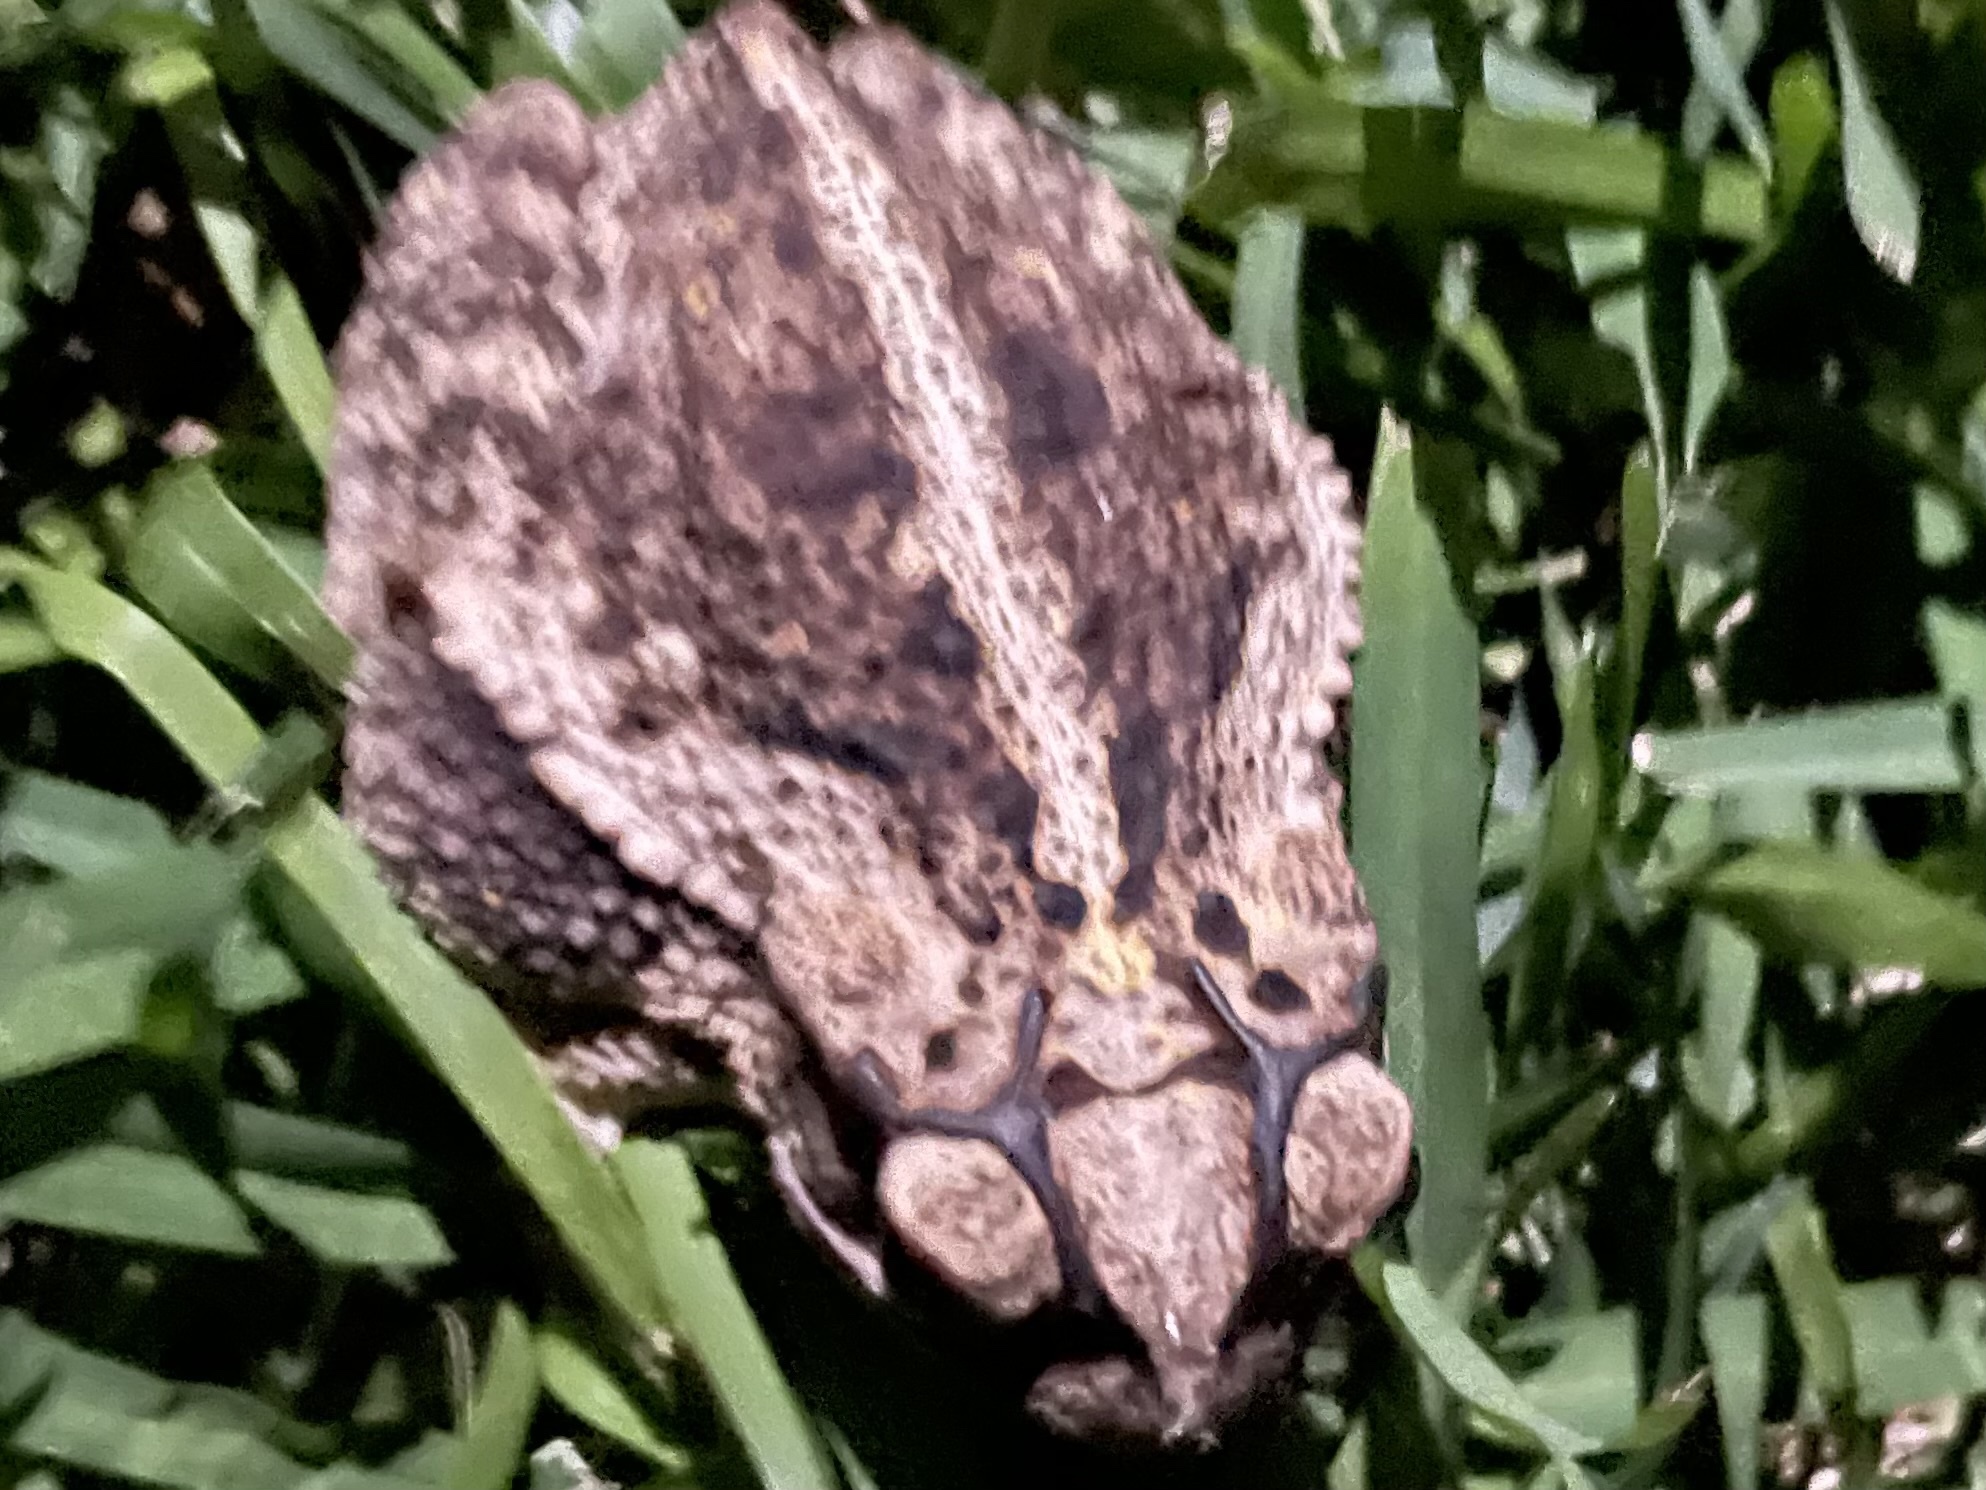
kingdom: Animalia
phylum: Chordata
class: Amphibia
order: Anura
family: Bufonidae
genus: Incilius
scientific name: Incilius nebulifer
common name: Gulf coast toad
